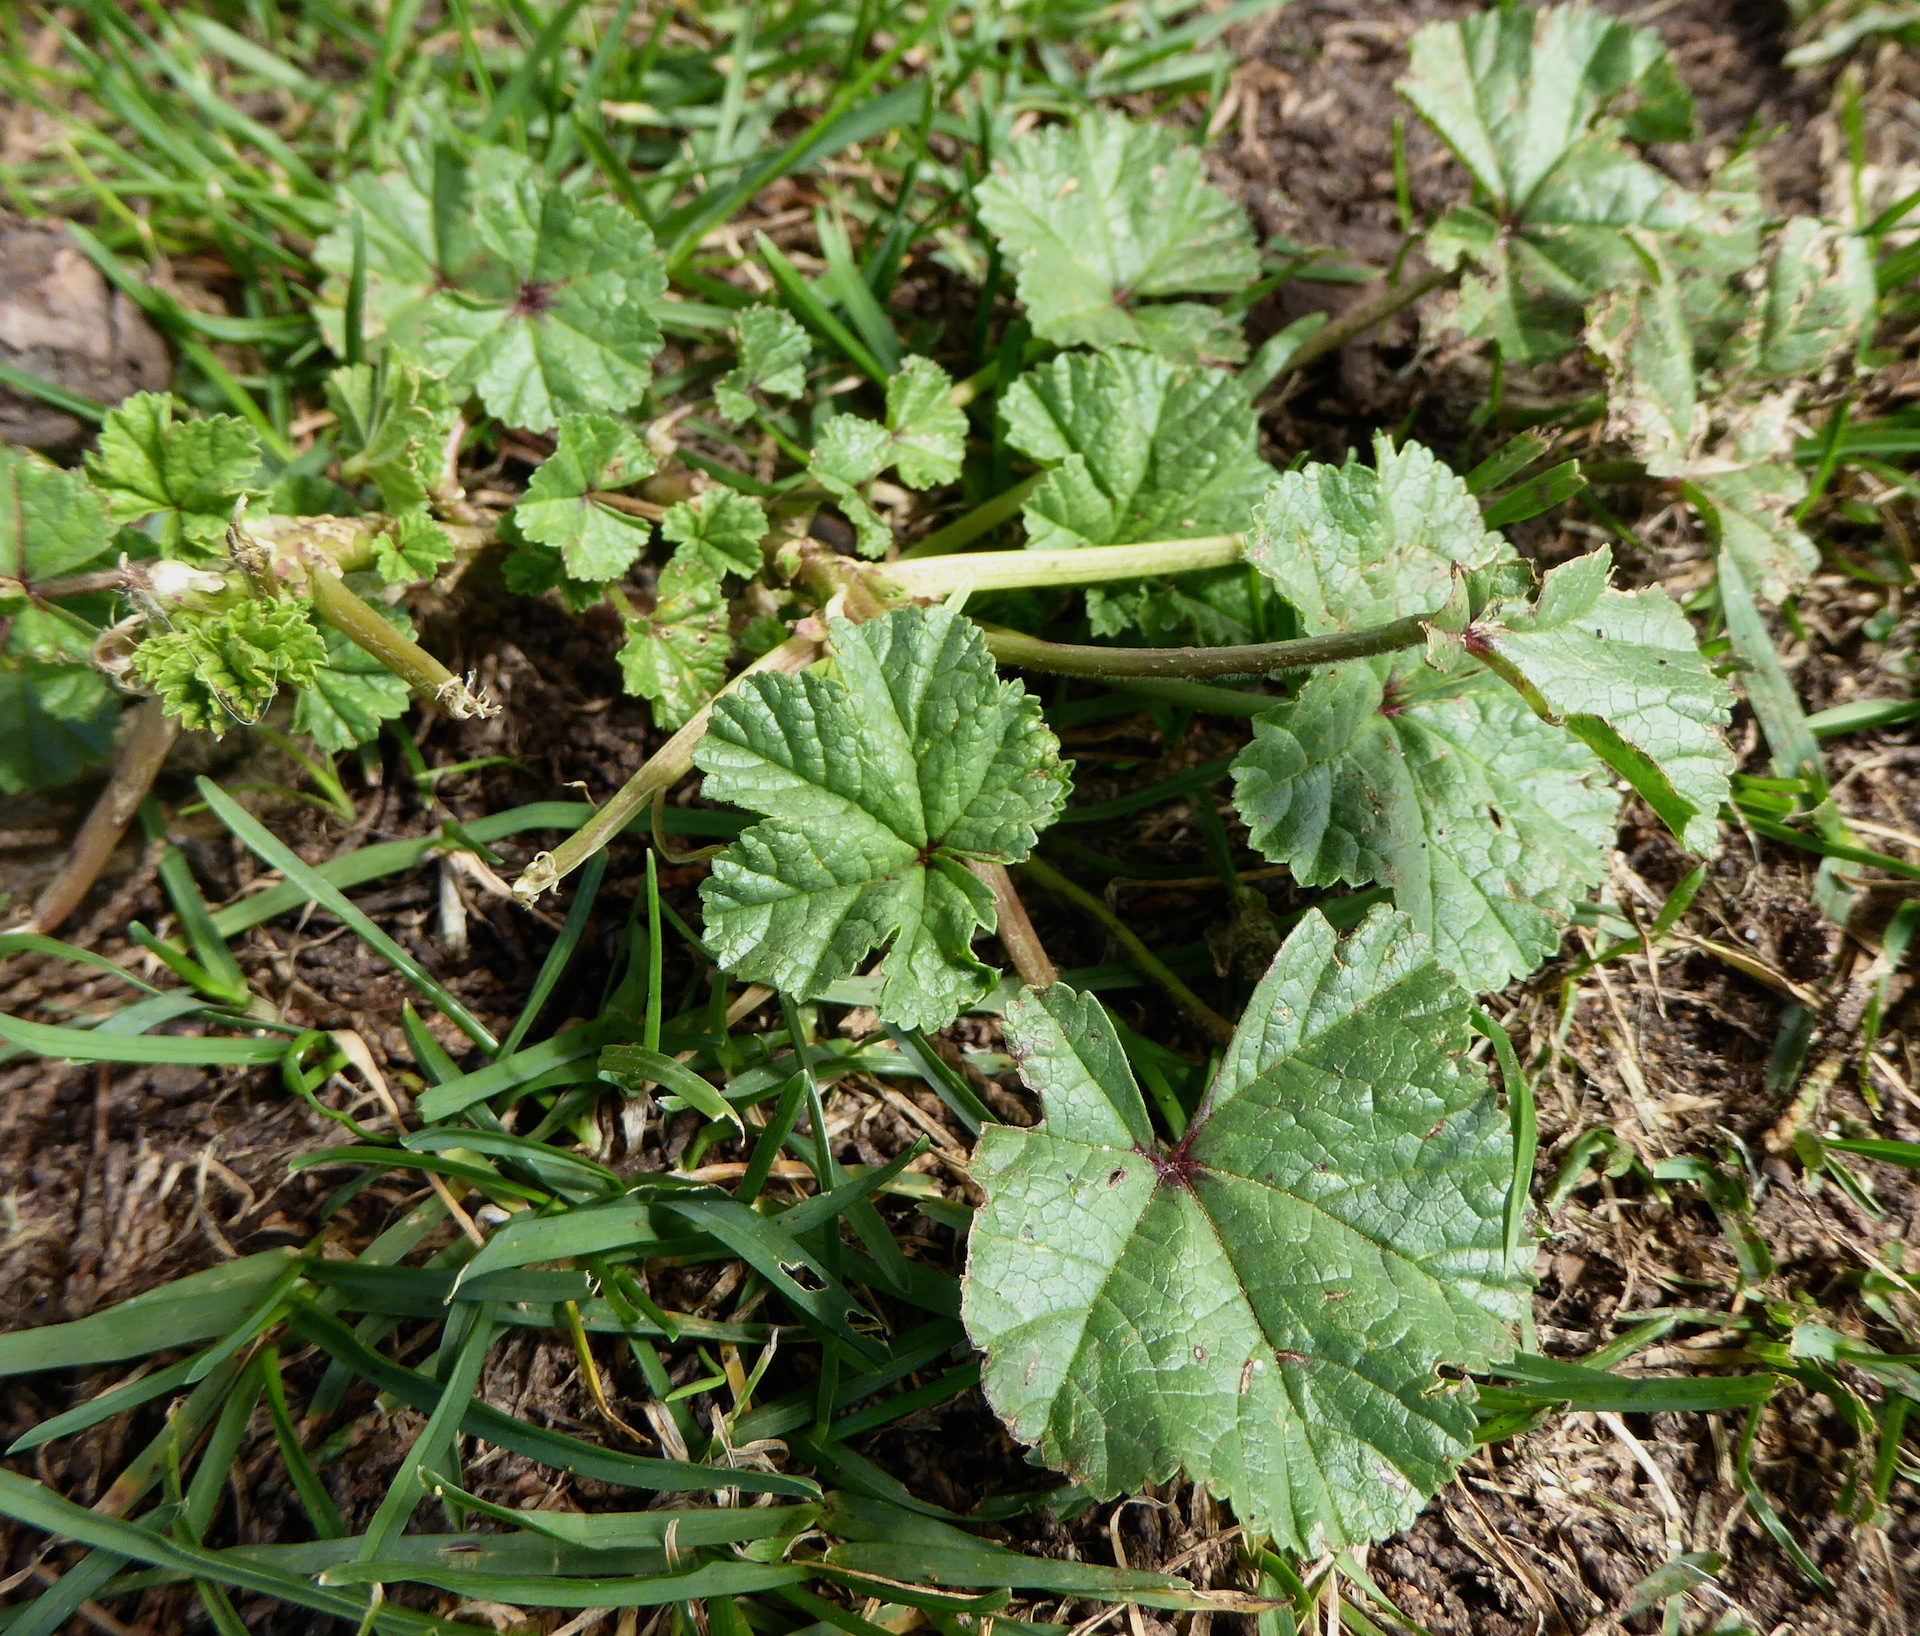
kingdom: Plantae
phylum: Tracheophyta
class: Magnoliopsida
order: Malvales
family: Malvaceae
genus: Malva
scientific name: Malva
